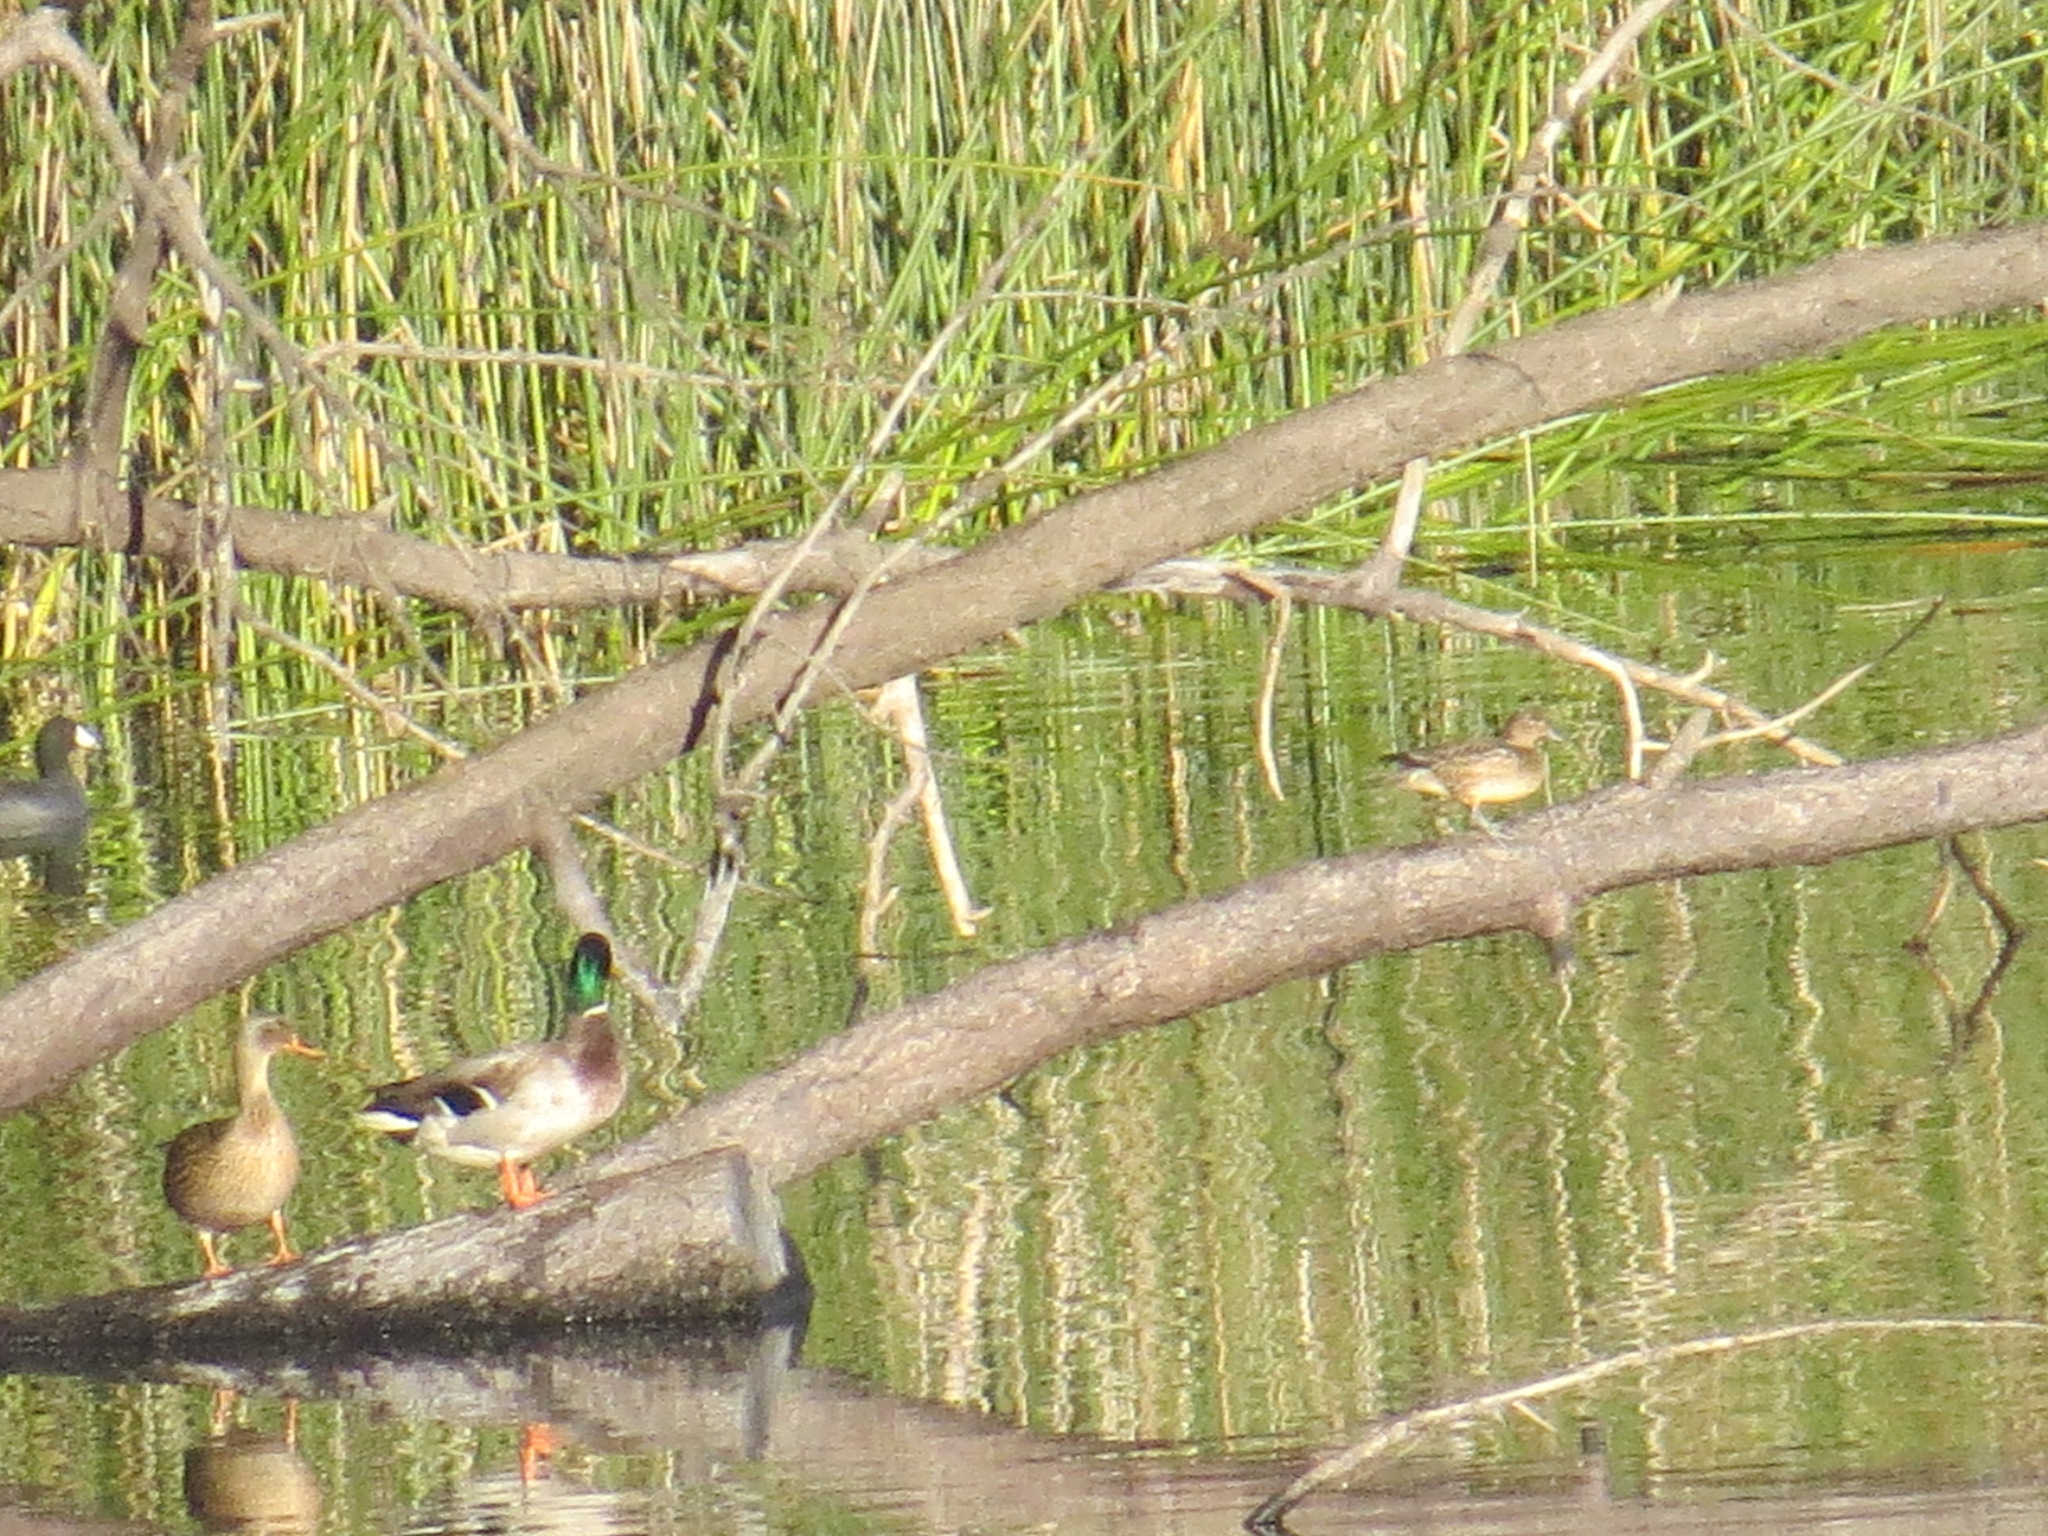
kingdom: Animalia
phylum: Chordata
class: Aves
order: Anseriformes
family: Anatidae
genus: Anas
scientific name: Anas crecca
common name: Eurasian teal
